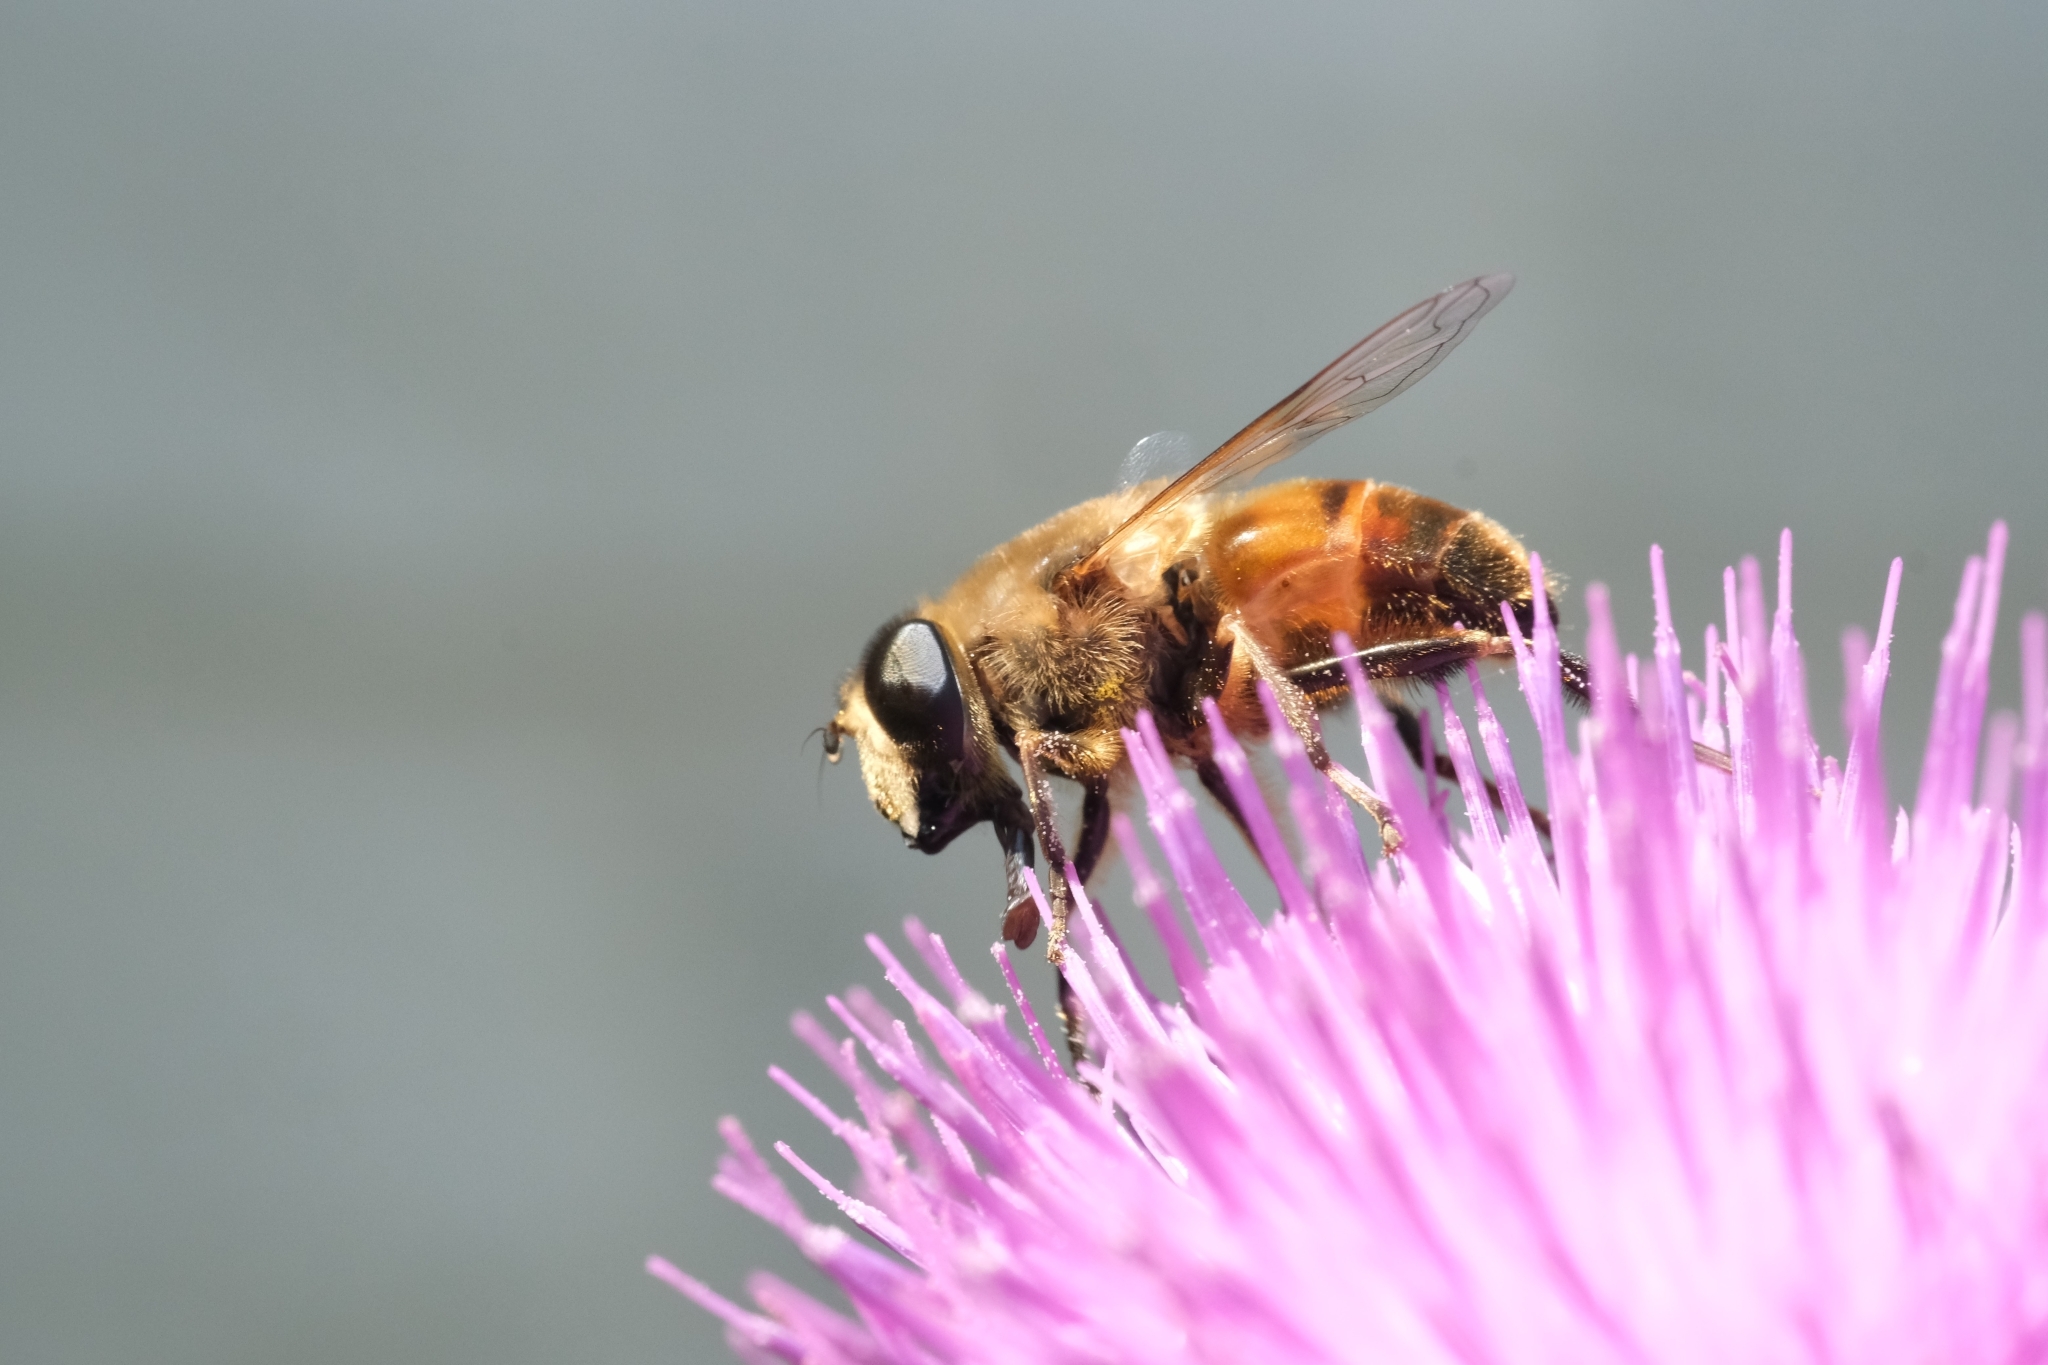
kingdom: Animalia
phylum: Arthropoda
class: Insecta
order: Diptera
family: Syrphidae
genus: Eristalis
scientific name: Eristalis tenax
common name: Drone fly
